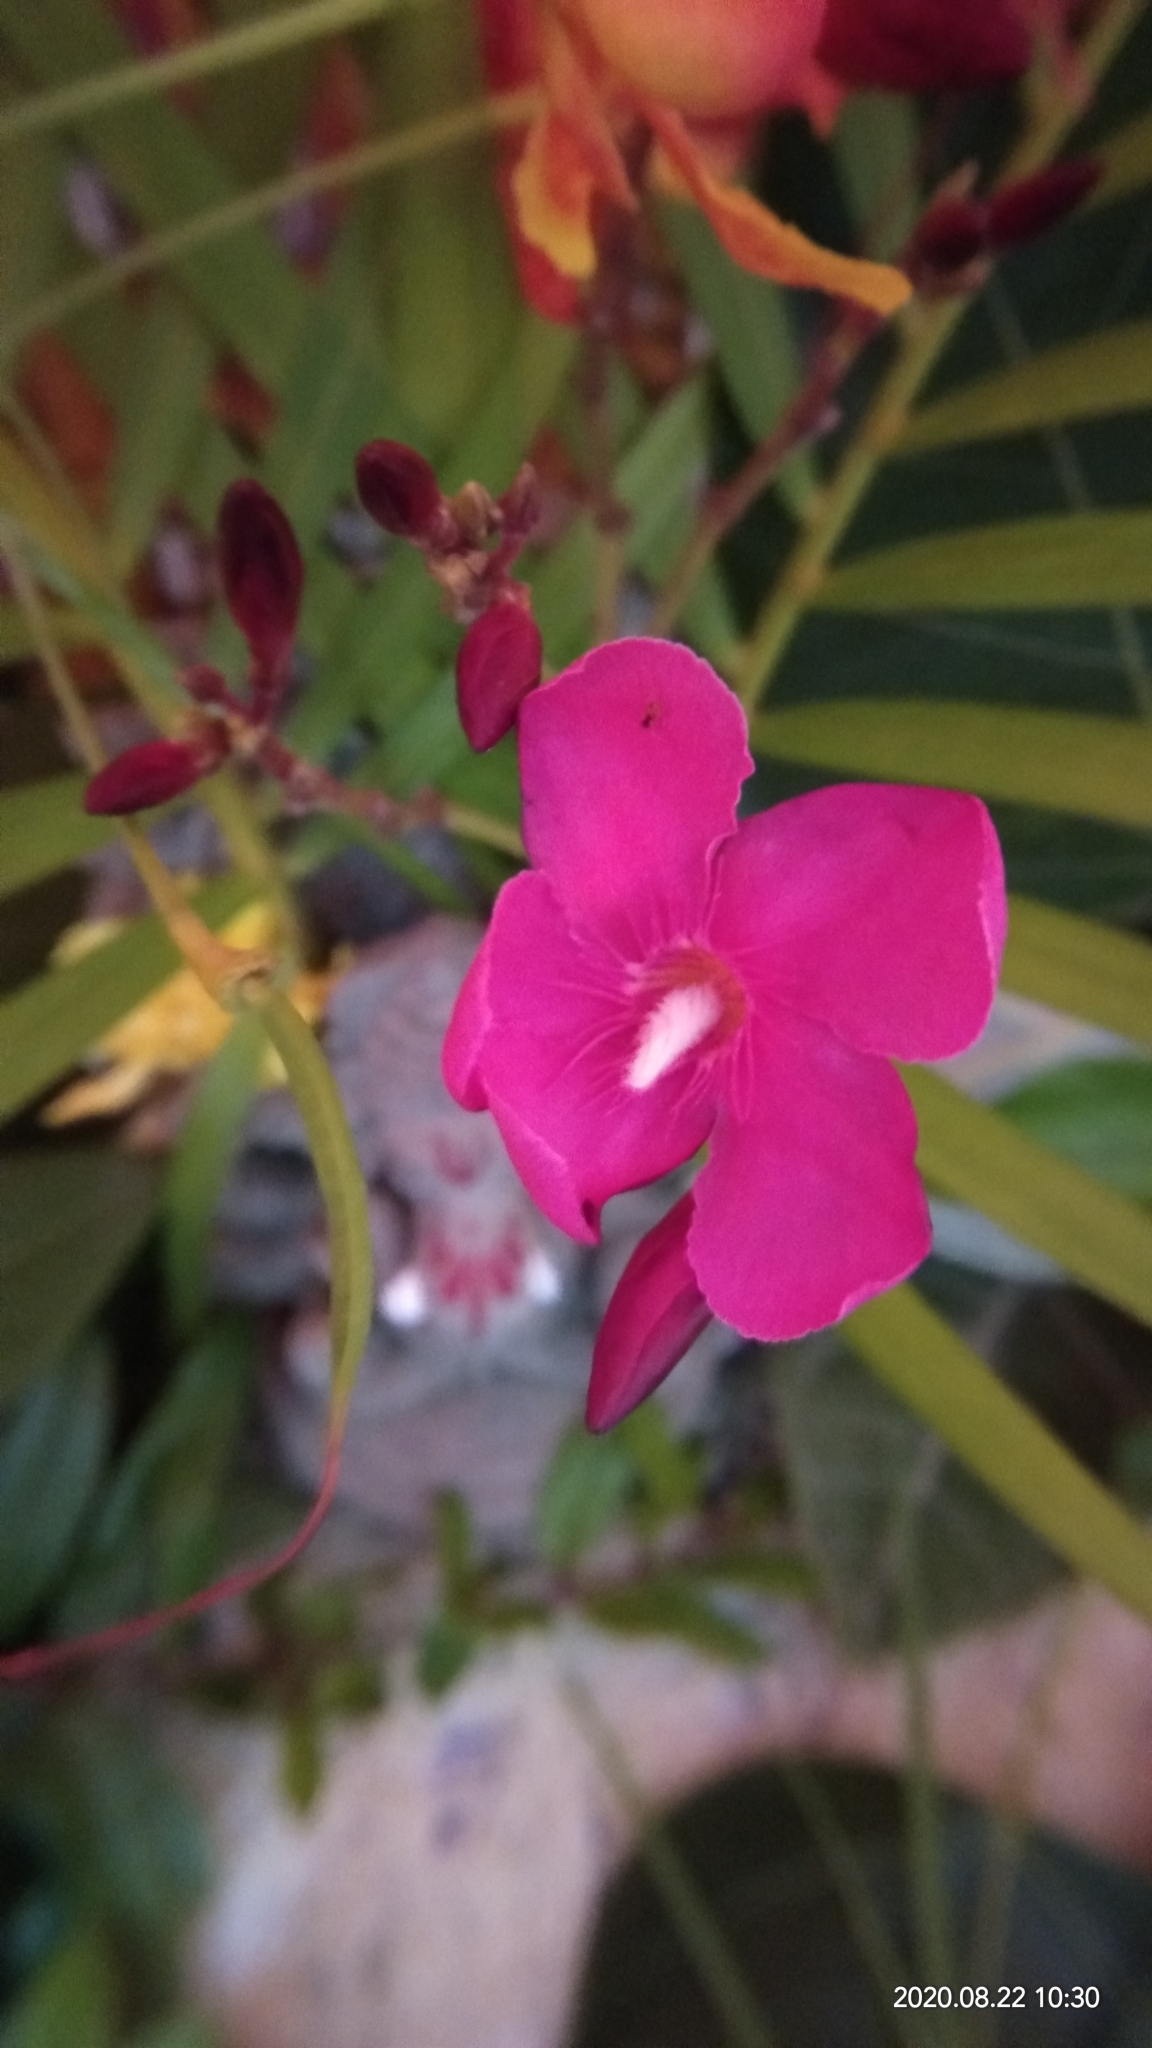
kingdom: Plantae
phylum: Tracheophyta
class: Magnoliopsida
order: Gentianales
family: Apocynaceae
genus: Nerium
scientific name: Nerium oleander
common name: Oleander
